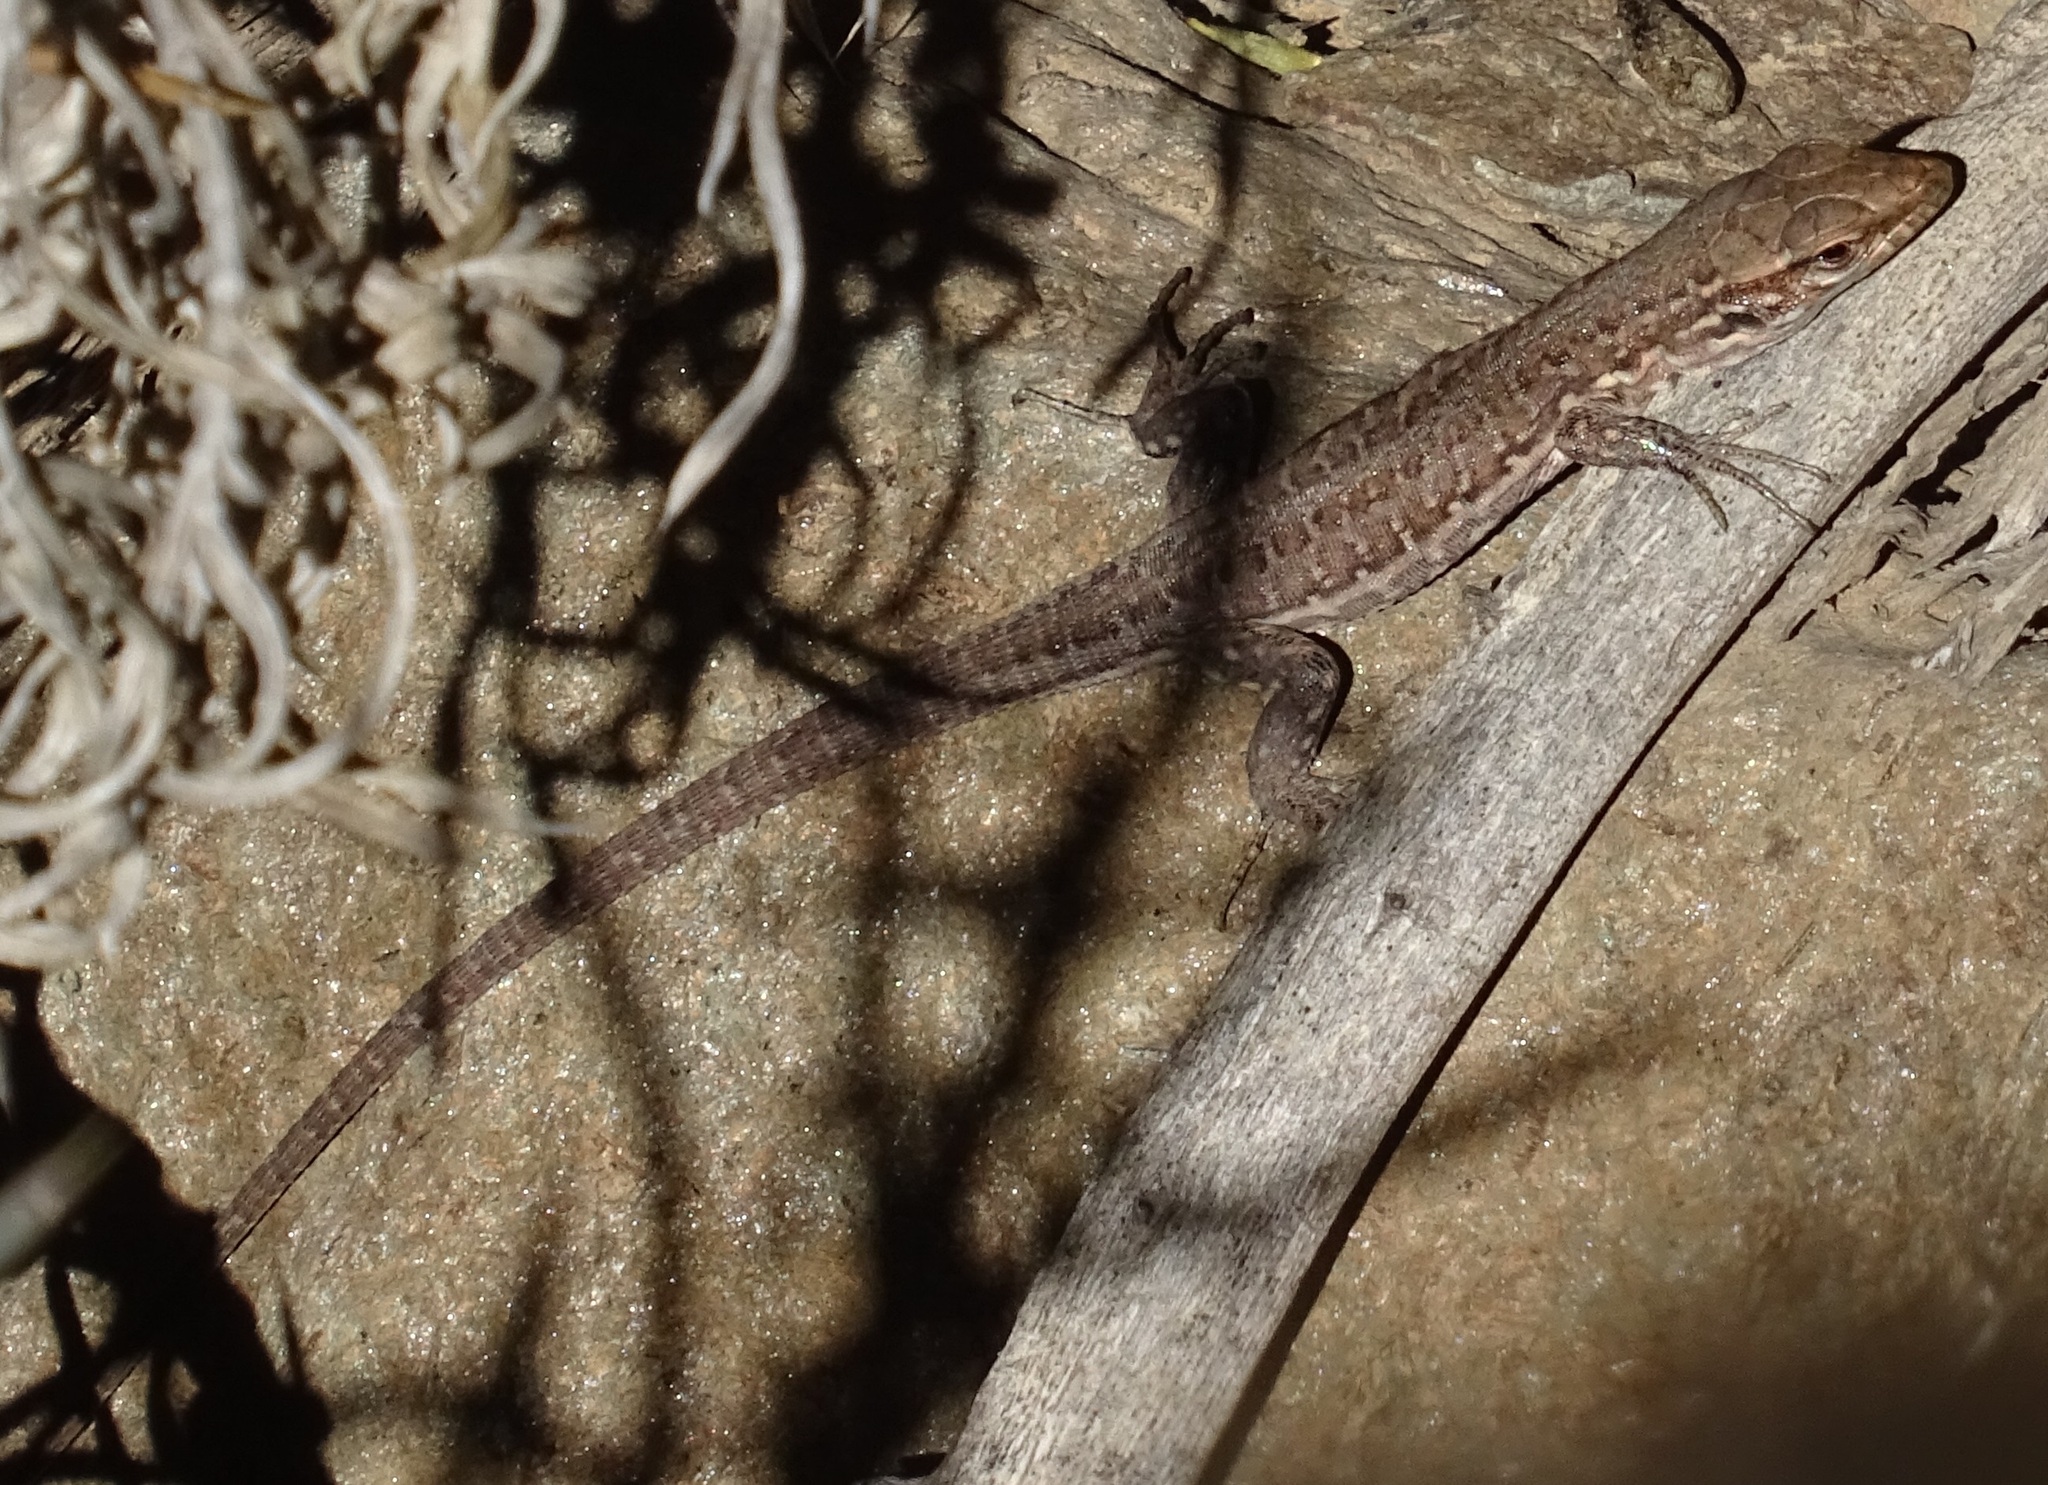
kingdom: Animalia
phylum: Chordata
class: Squamata
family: Lacertidae
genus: Gallotia
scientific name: Gallotia galloti
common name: Gallot's lizard
